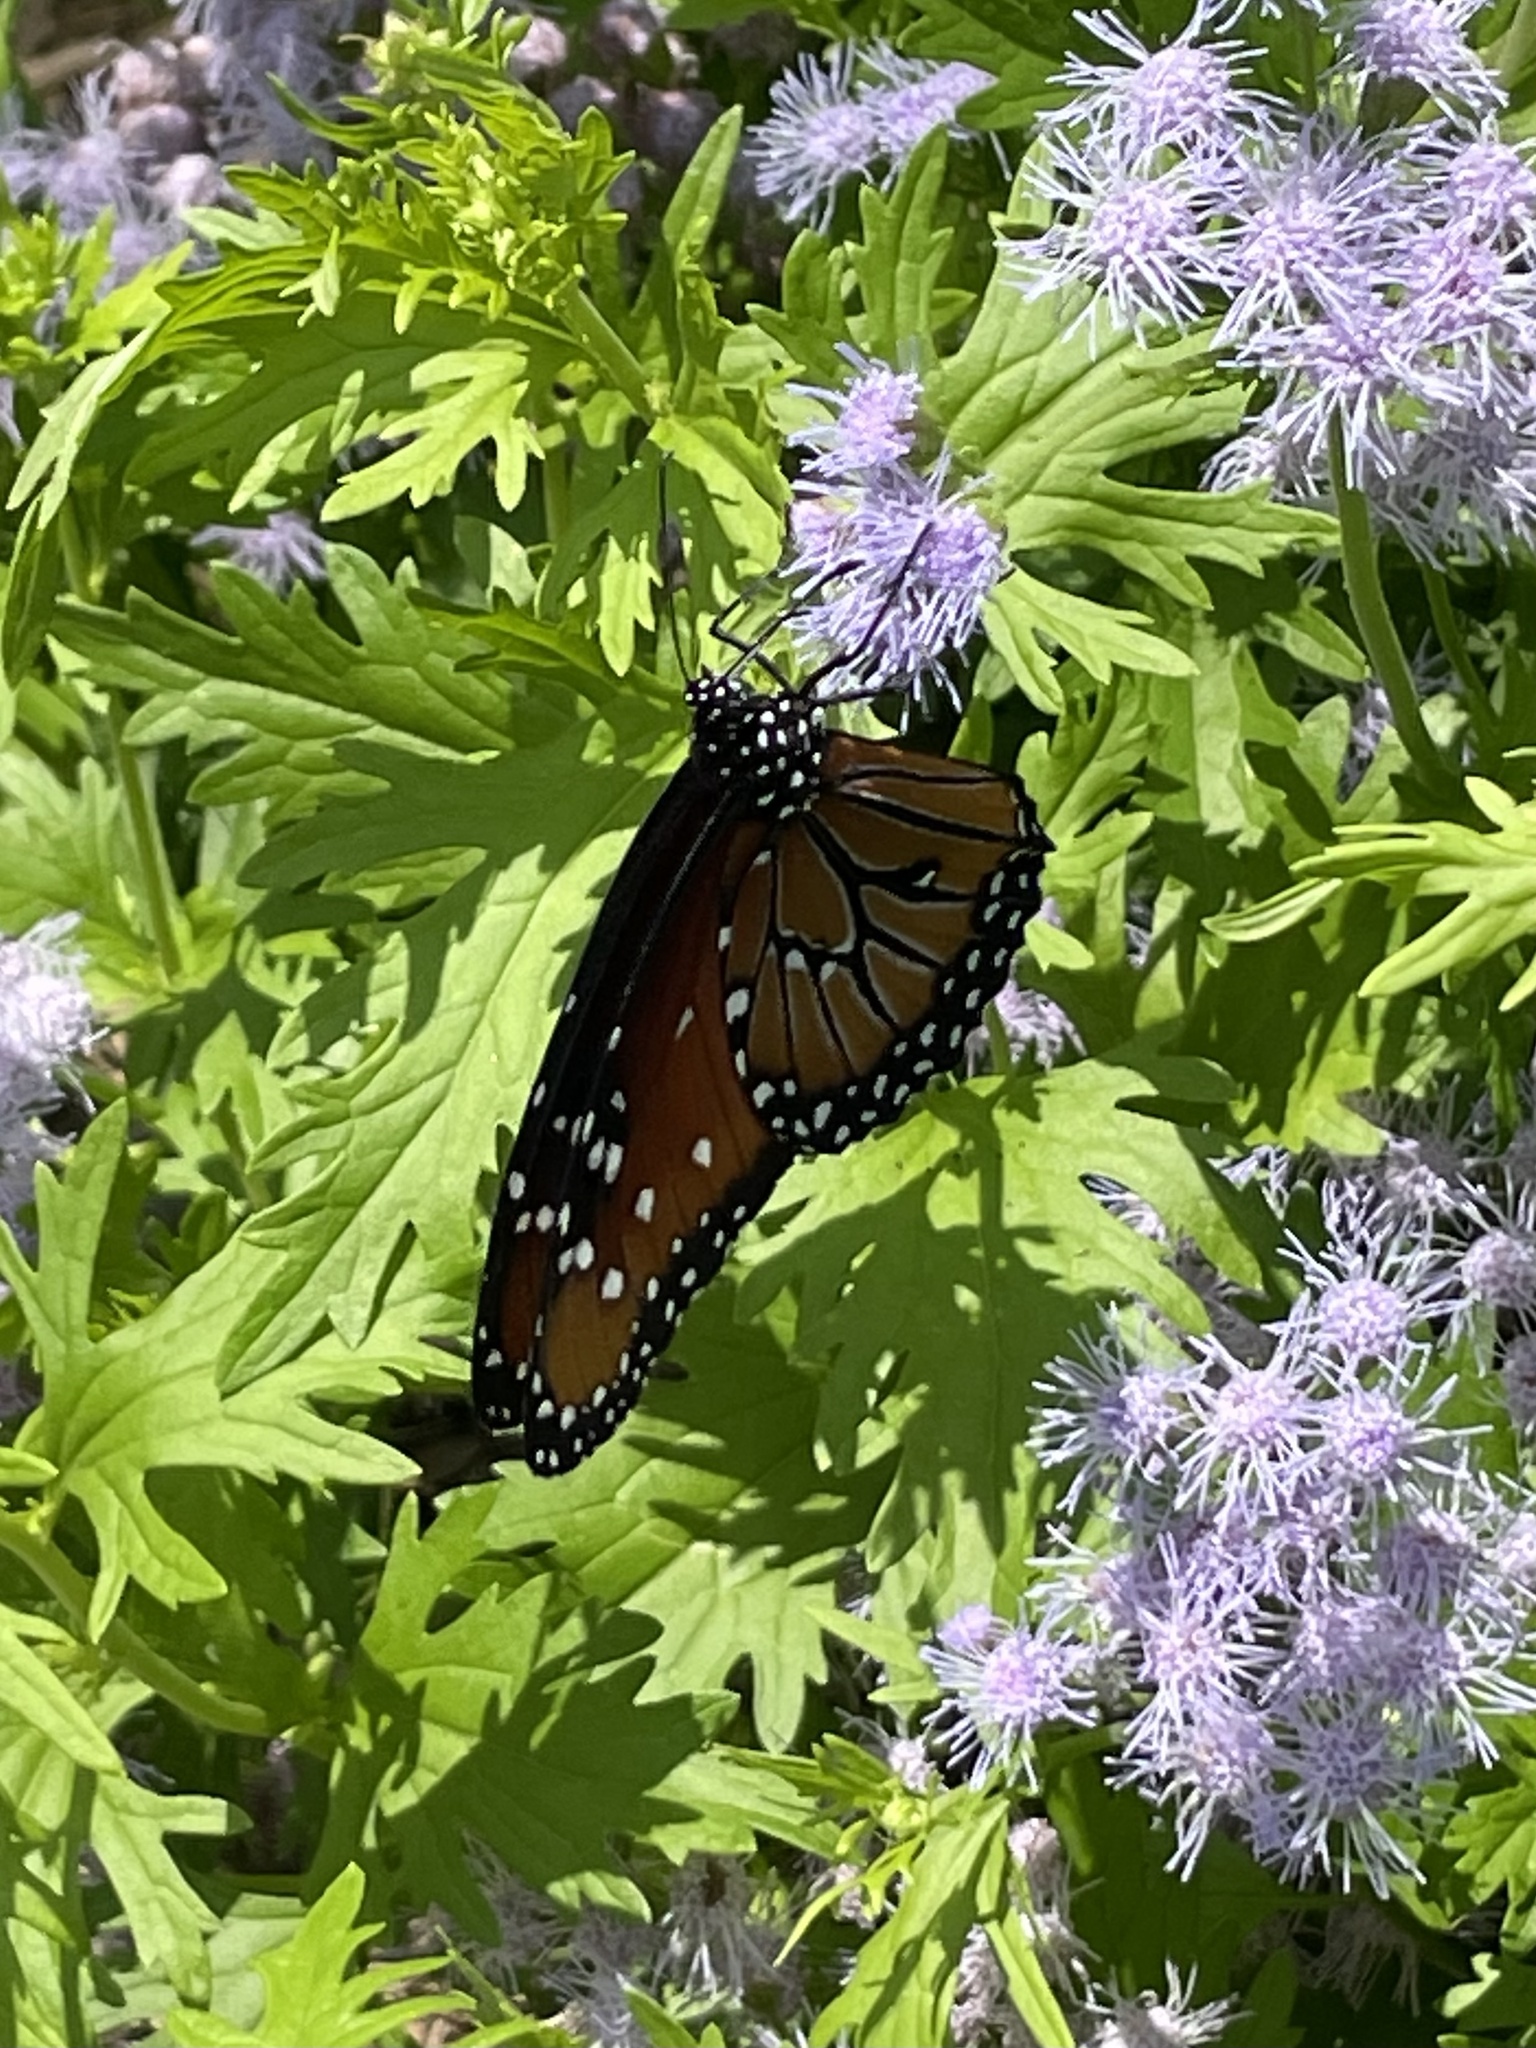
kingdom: Animalia
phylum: Arthropoda
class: Insecta
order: Lepidoptera
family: Nymphalidae
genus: Danaus
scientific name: Danaus gilippus
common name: Queen
